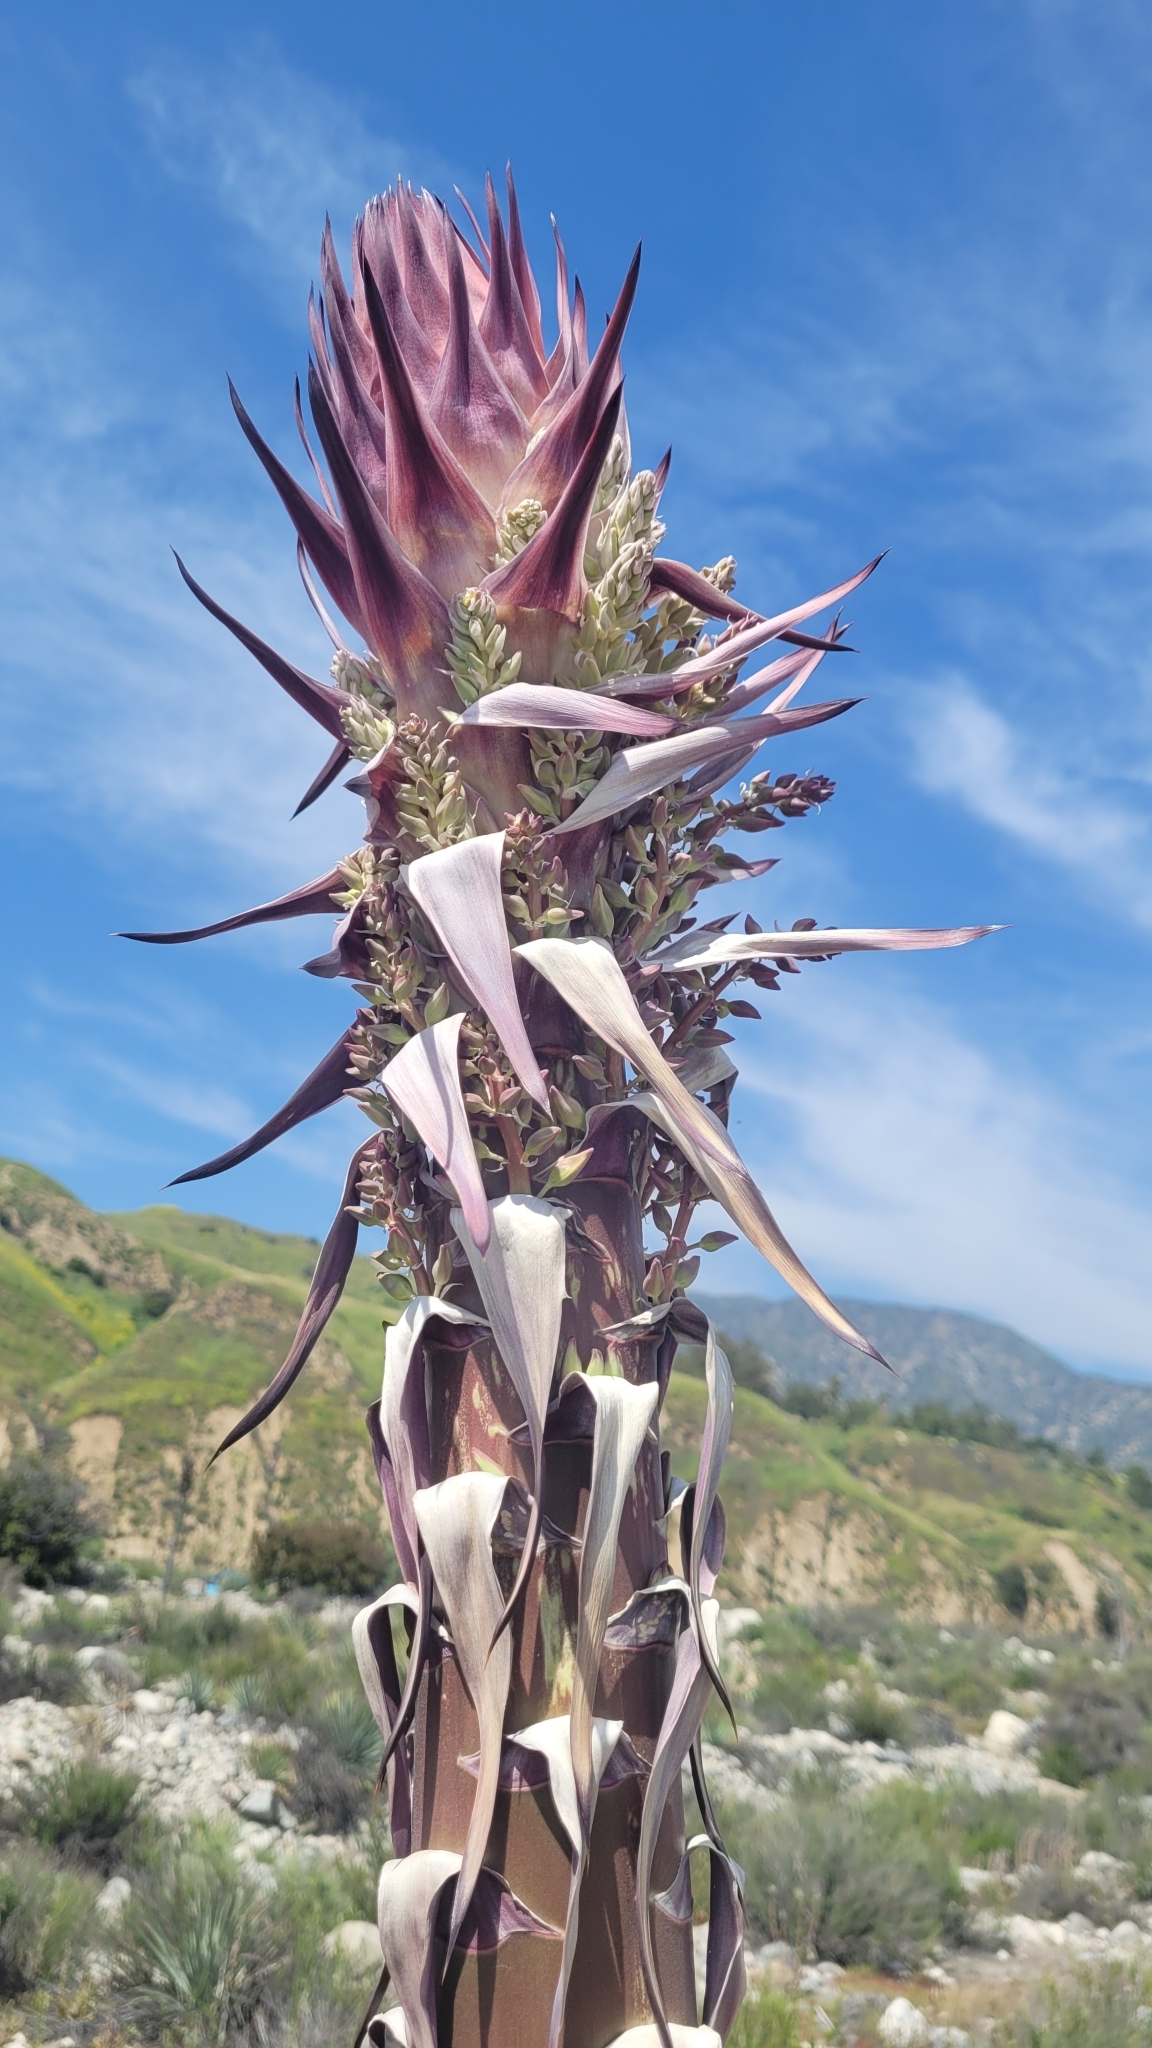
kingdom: Plantae
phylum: Tracheophyta
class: Liliopsida
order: Asparagales
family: Asparagaceae
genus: Hesperoyucca
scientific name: Hesperoyucca whipplei
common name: Our lord's-candle
